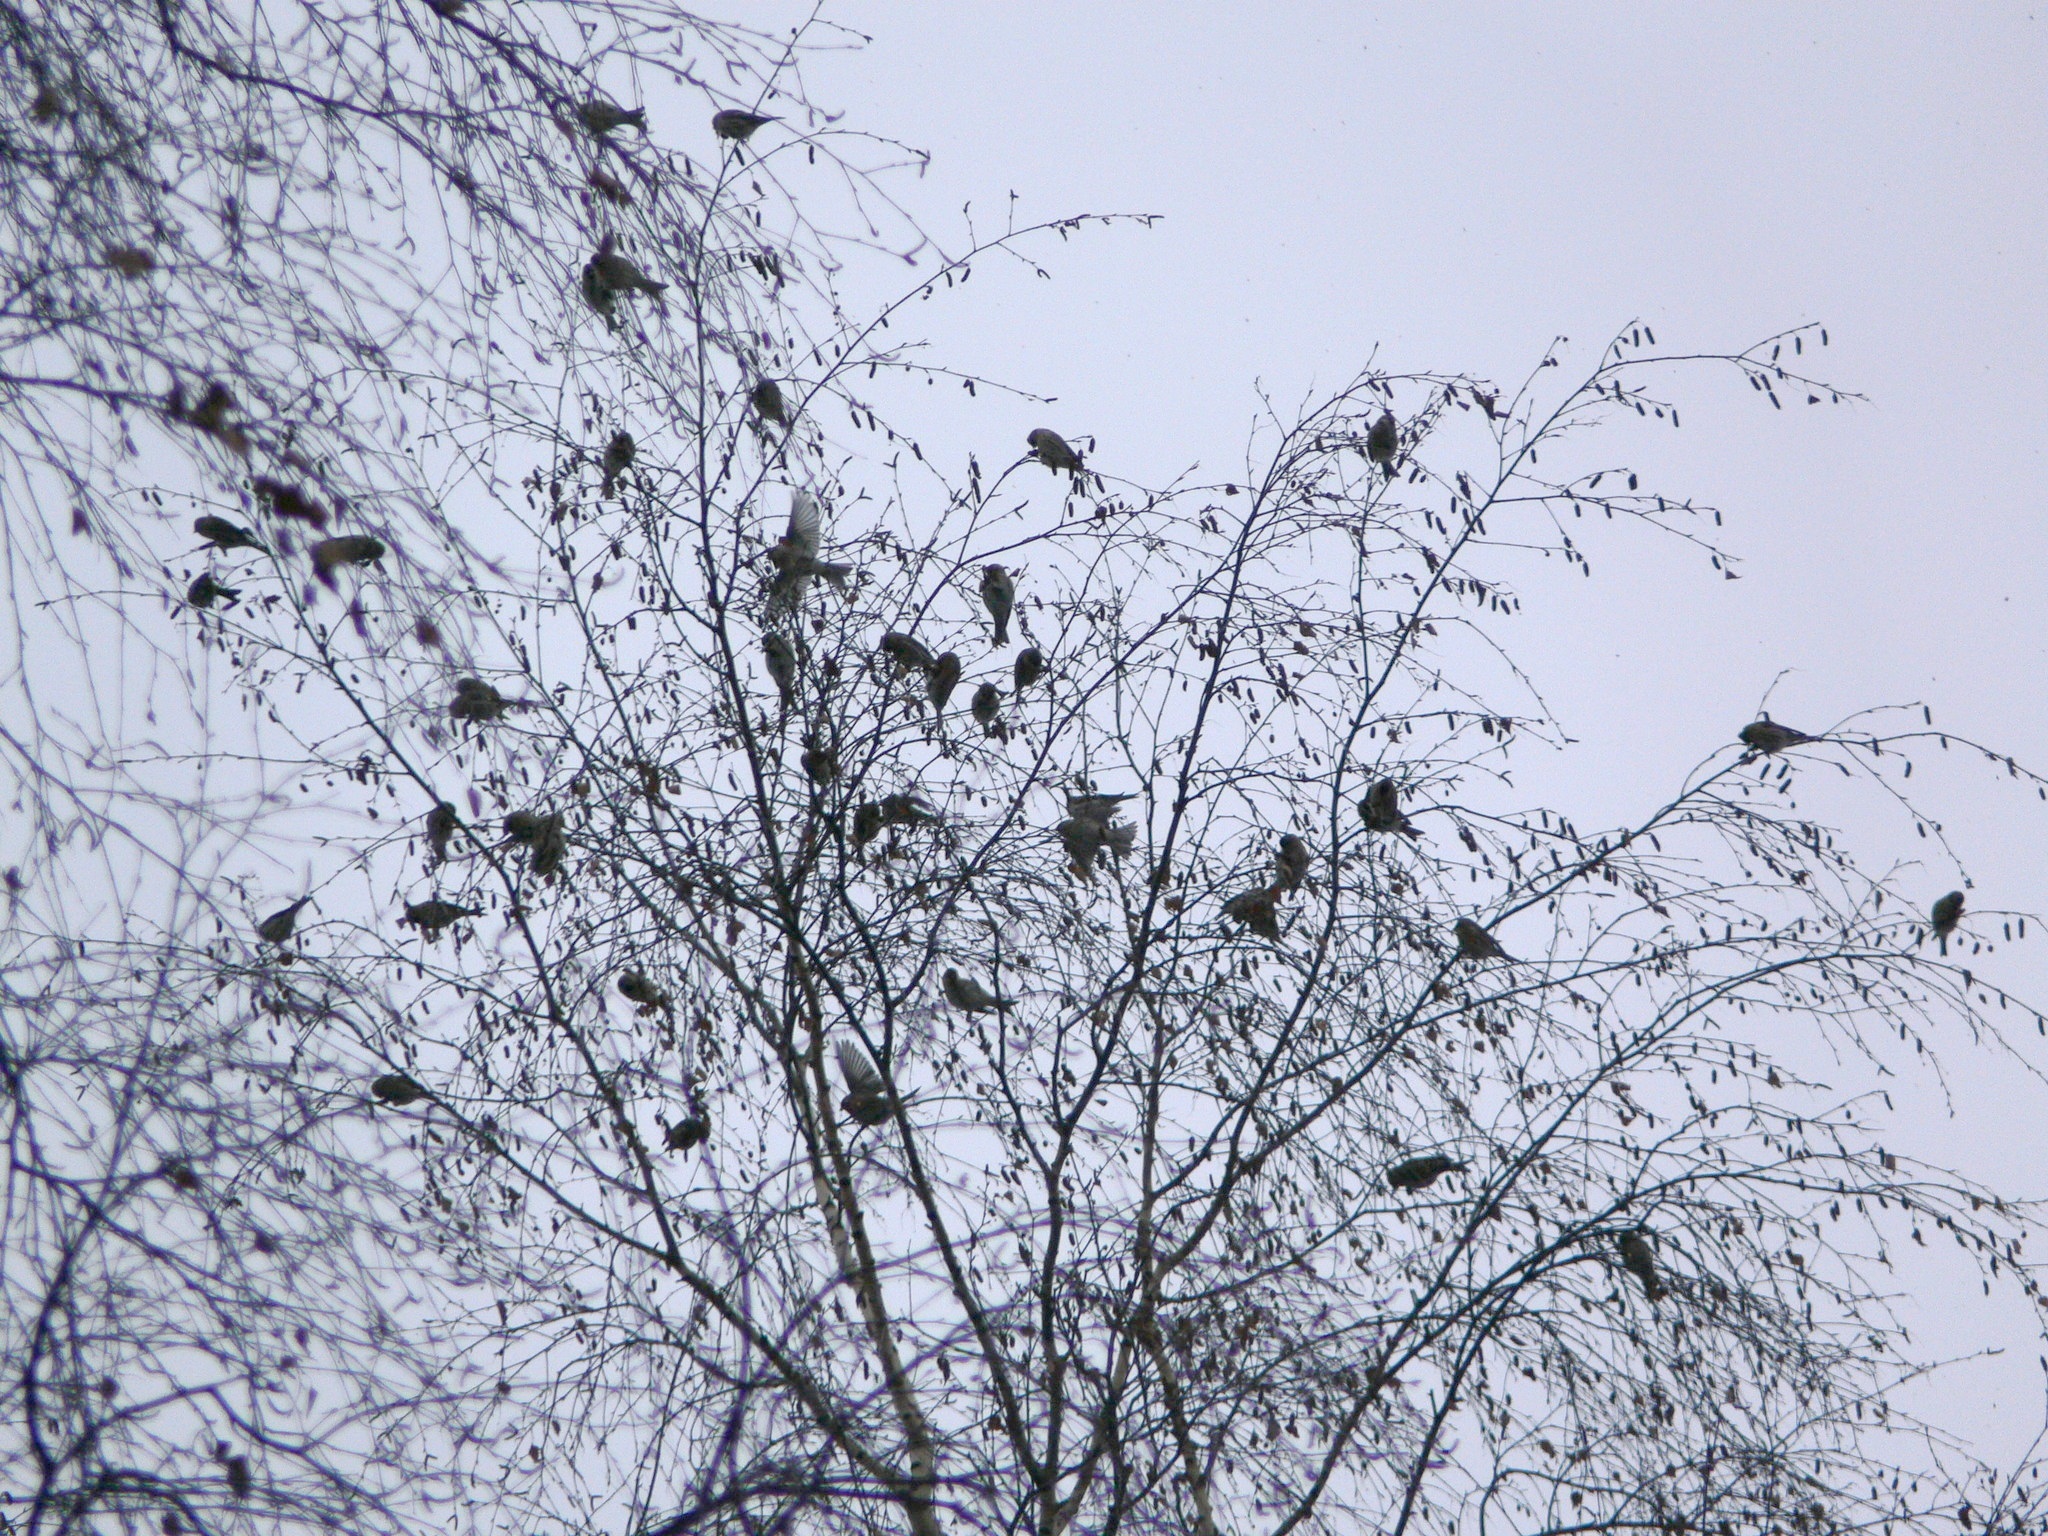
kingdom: Animalia
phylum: Chordata
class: Aves
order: Passeriformes
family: Fringillidae
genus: Acanthis
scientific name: Acanthis flammea
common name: Common redpoll
